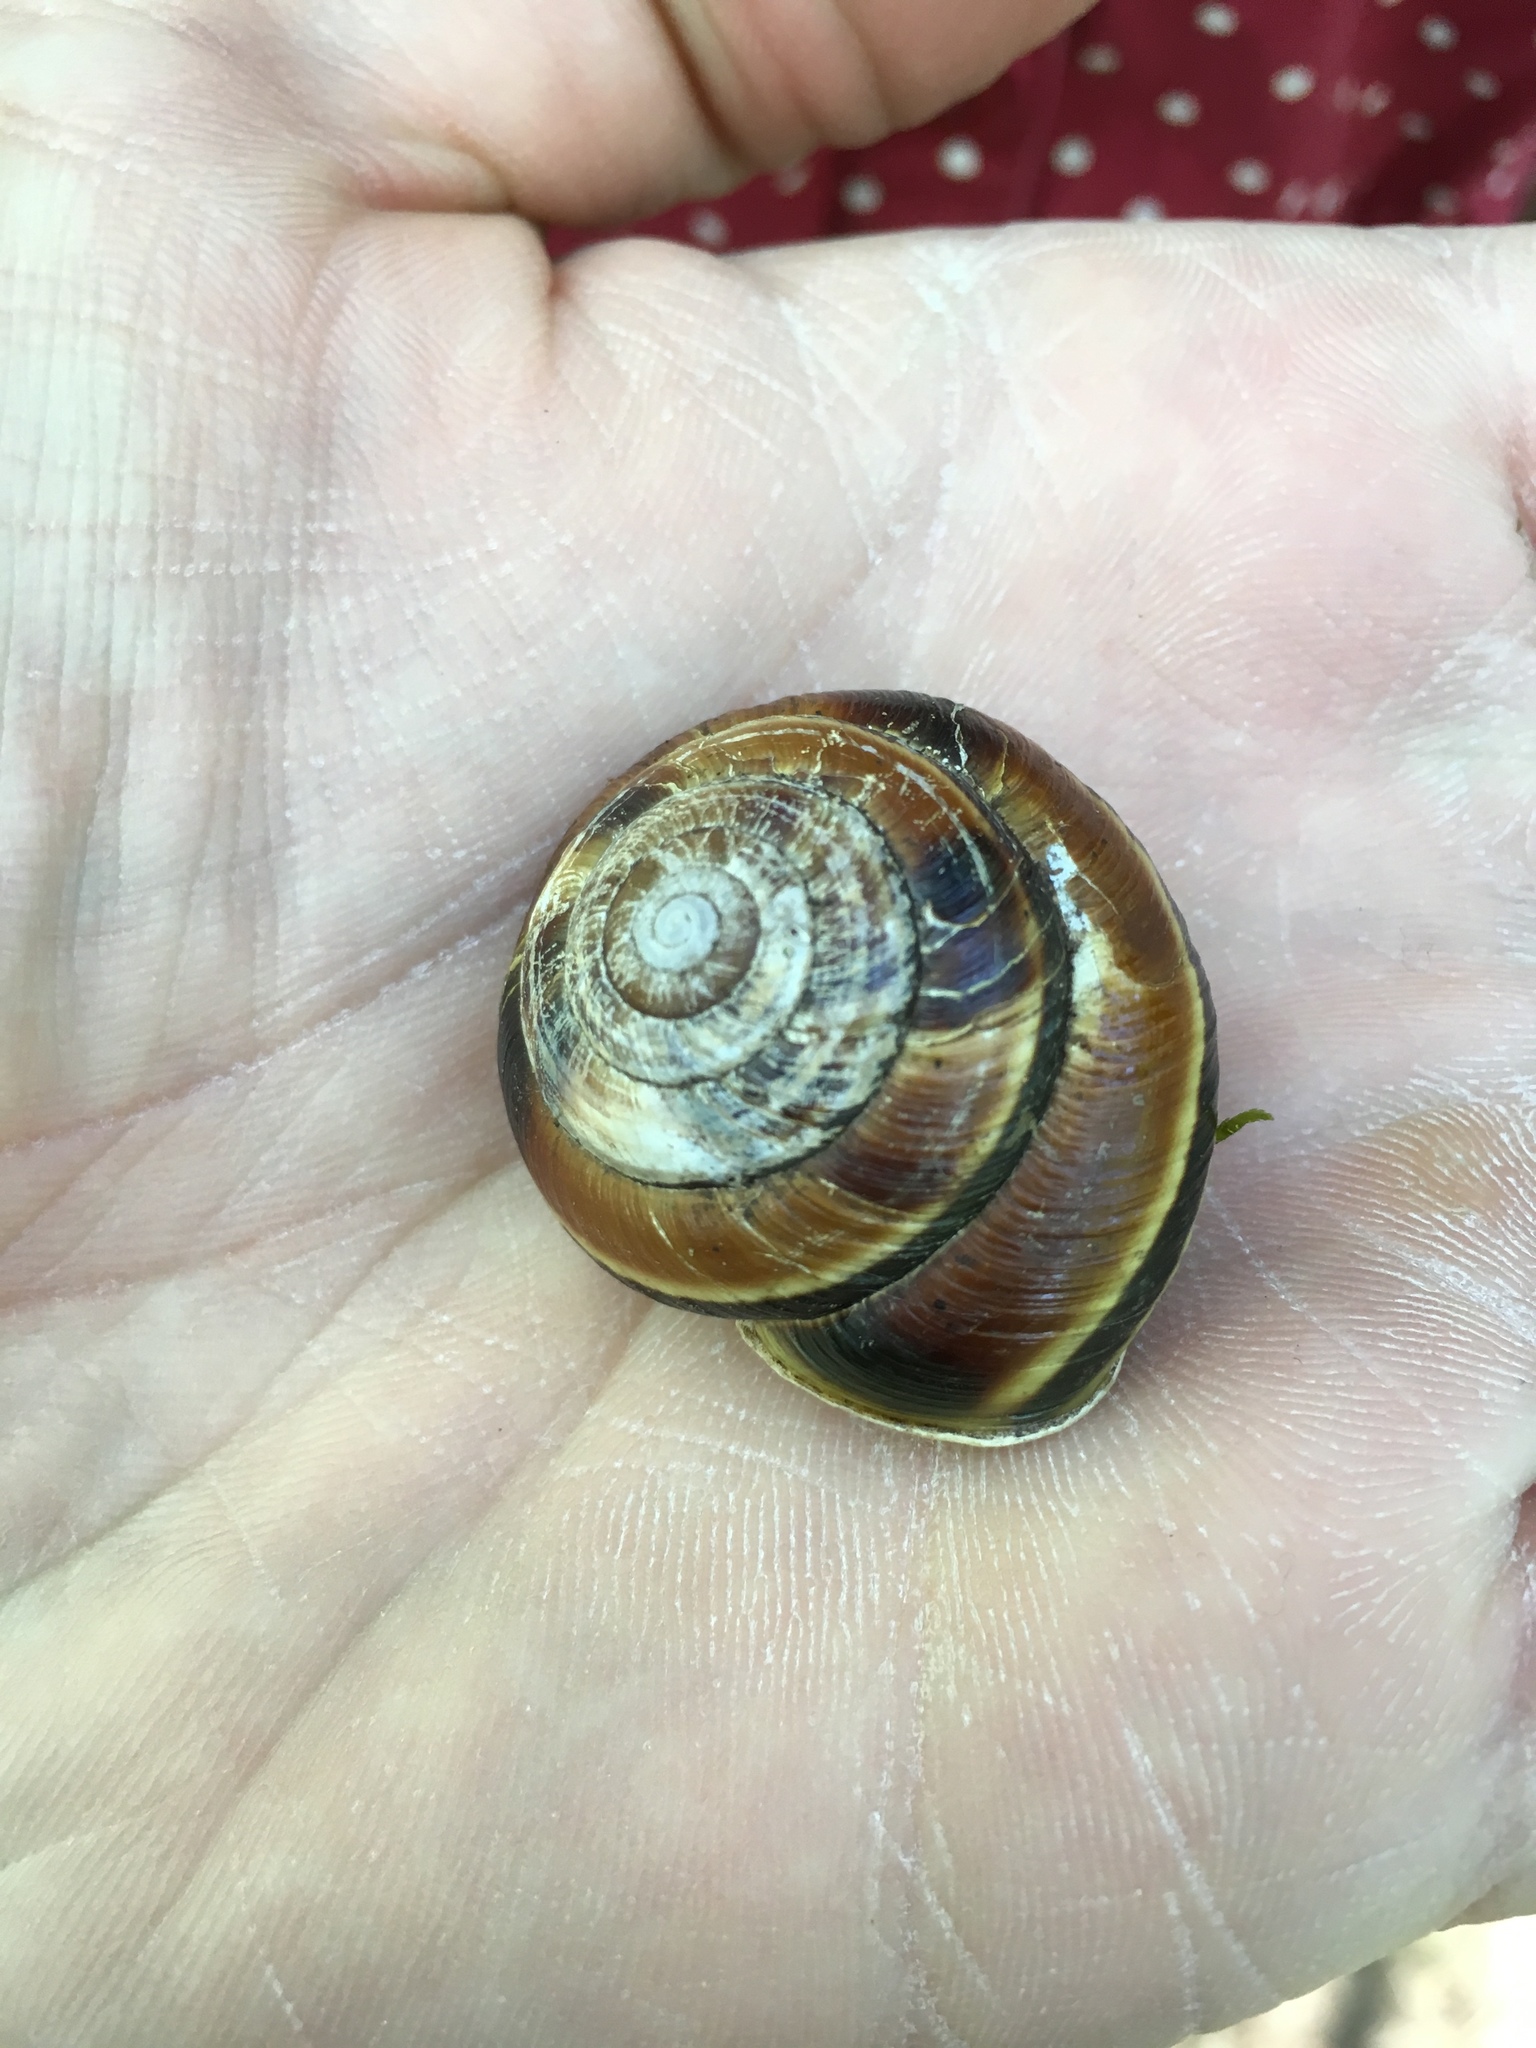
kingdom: Animalia
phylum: Mollusca
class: Gastropoda
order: Stylommatophora
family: Xanthonychidae
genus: Monadenia
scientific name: Monadenia fidelis
